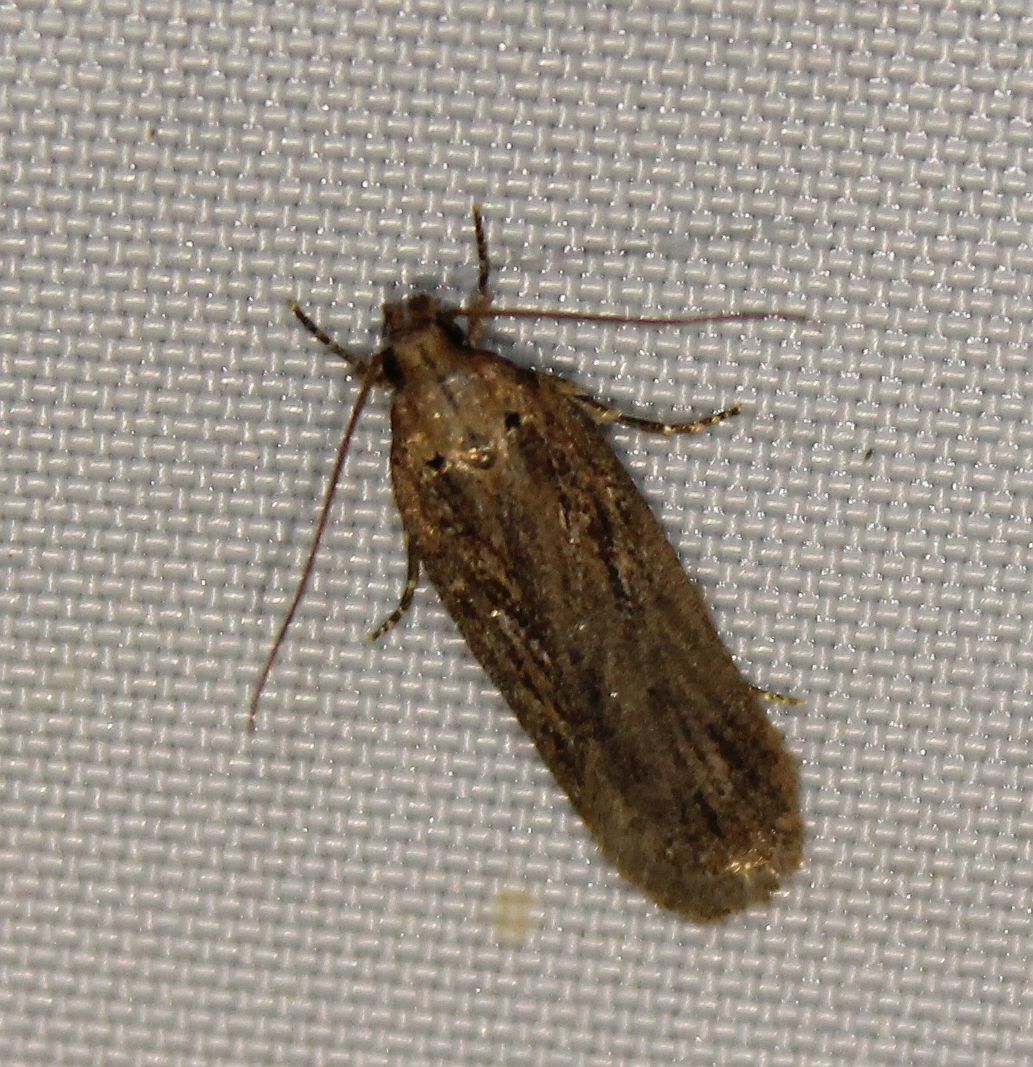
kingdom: Animalia
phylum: Arthropoda
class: Insecta
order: Lepidoptera
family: Depressariidae
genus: Depressaria
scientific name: Depressaria apiella
